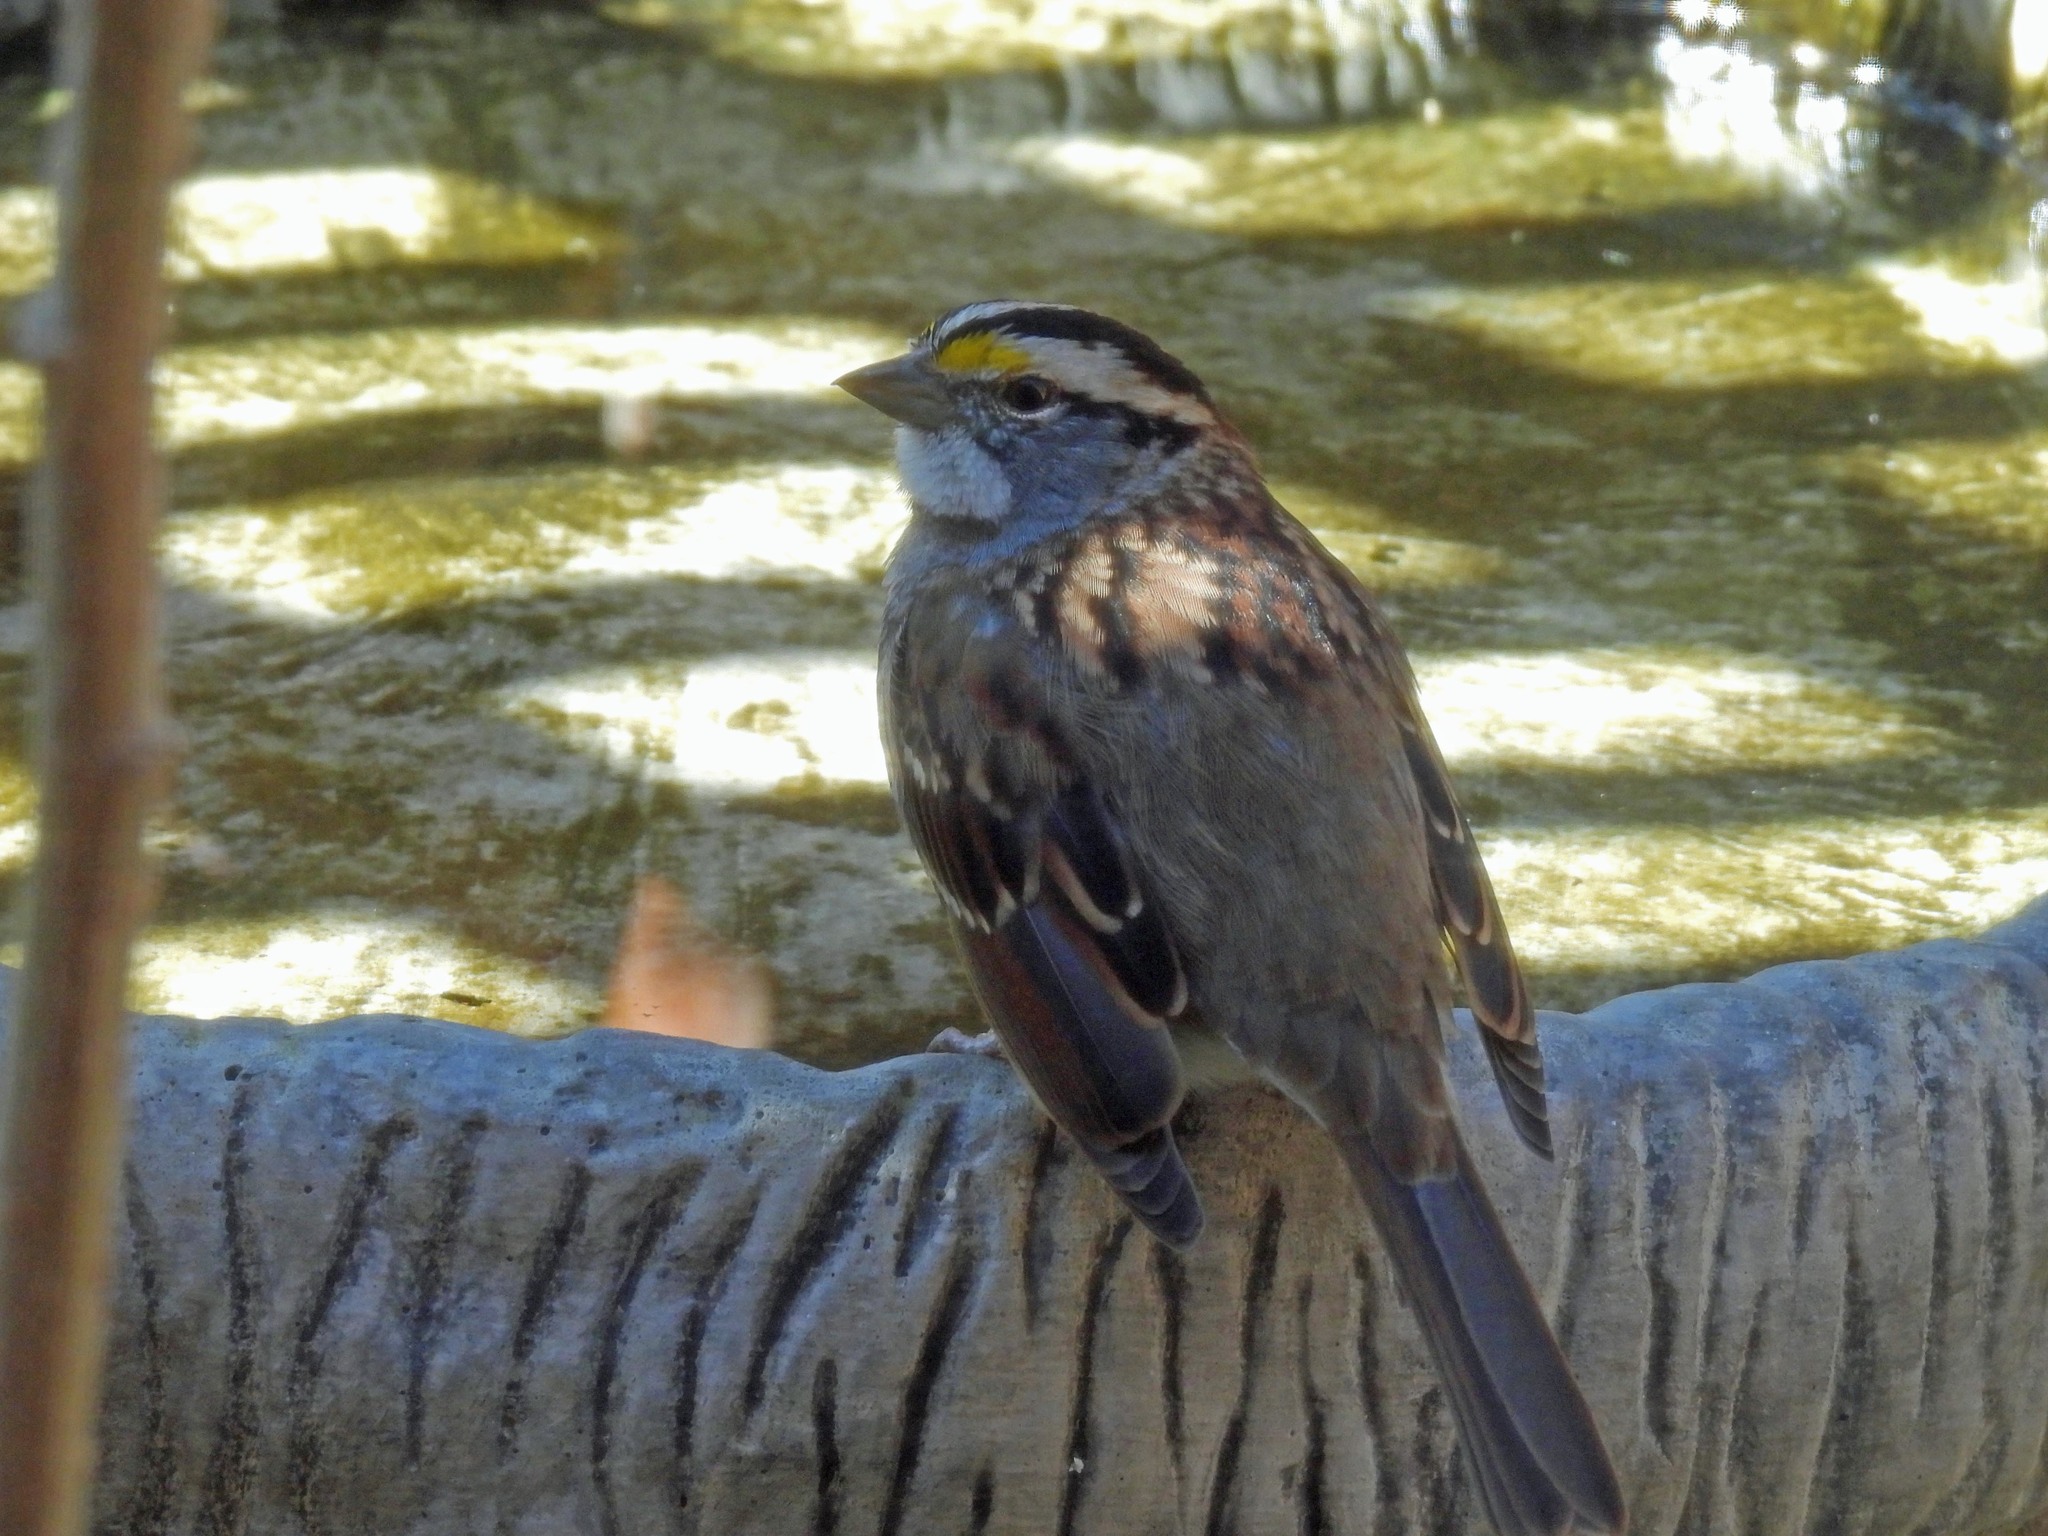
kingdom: Animalia
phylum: Chordata
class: Aves
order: Passeriformes
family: Passerellidae
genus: Zonotrichia
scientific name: Zonotrichia albicollis
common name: White-throated sparrow
